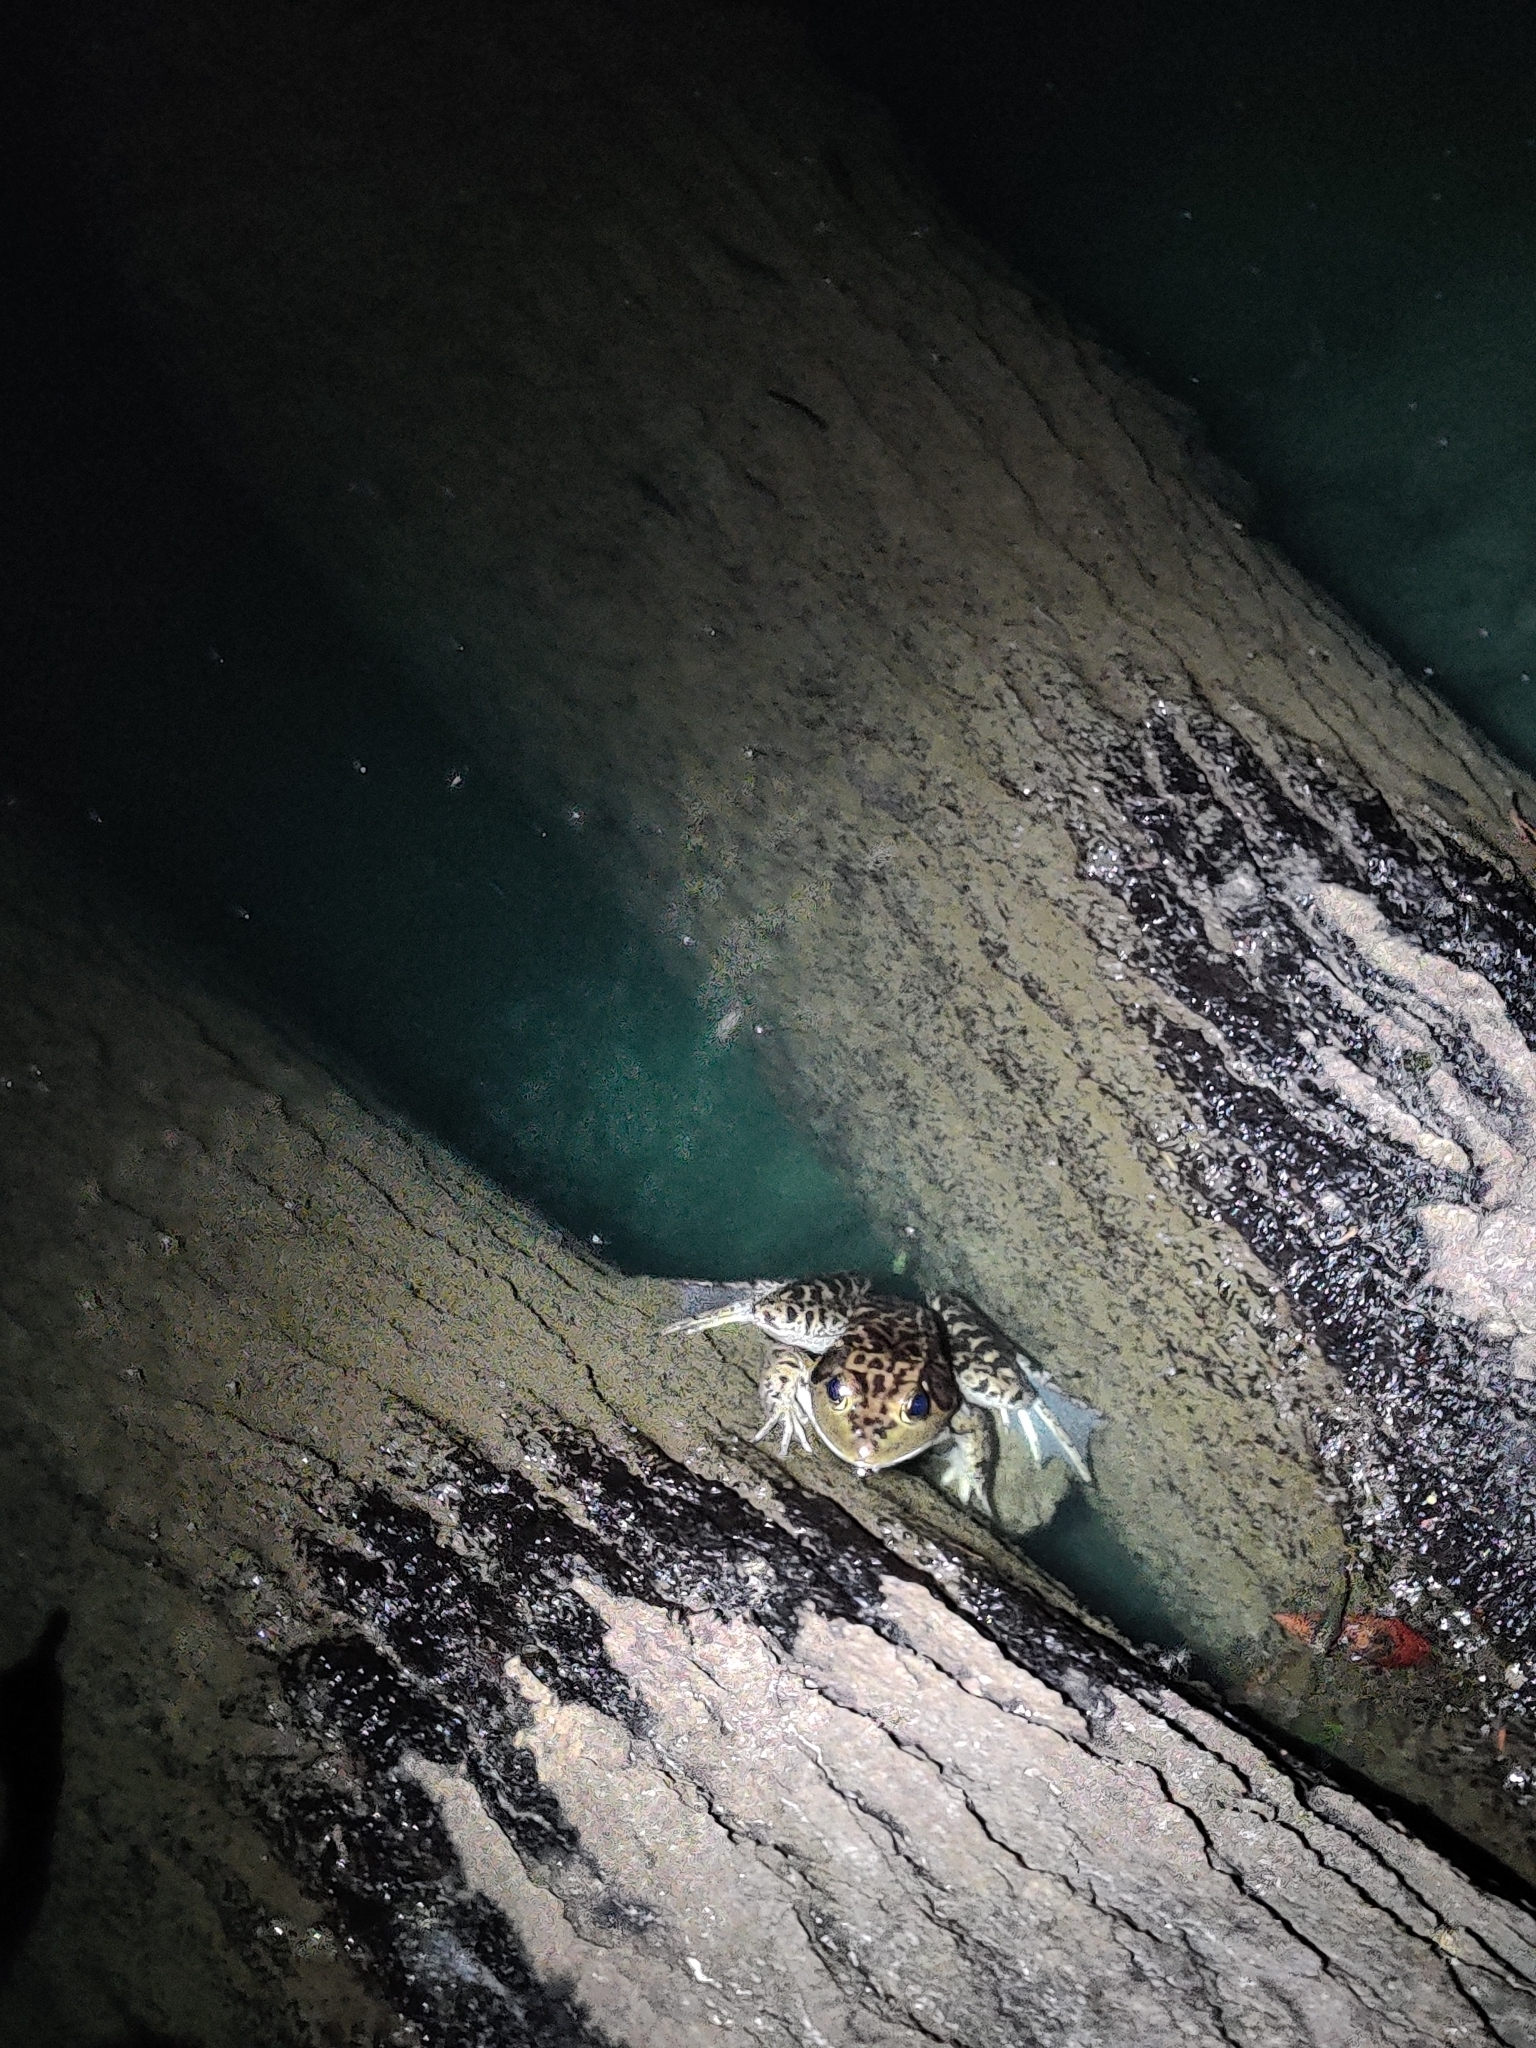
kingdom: Animalia
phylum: Chordata
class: Amphibia
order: Anura
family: Ranidae
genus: Lithobates
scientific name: Lithobates catesbeianus
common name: American bullfrog
